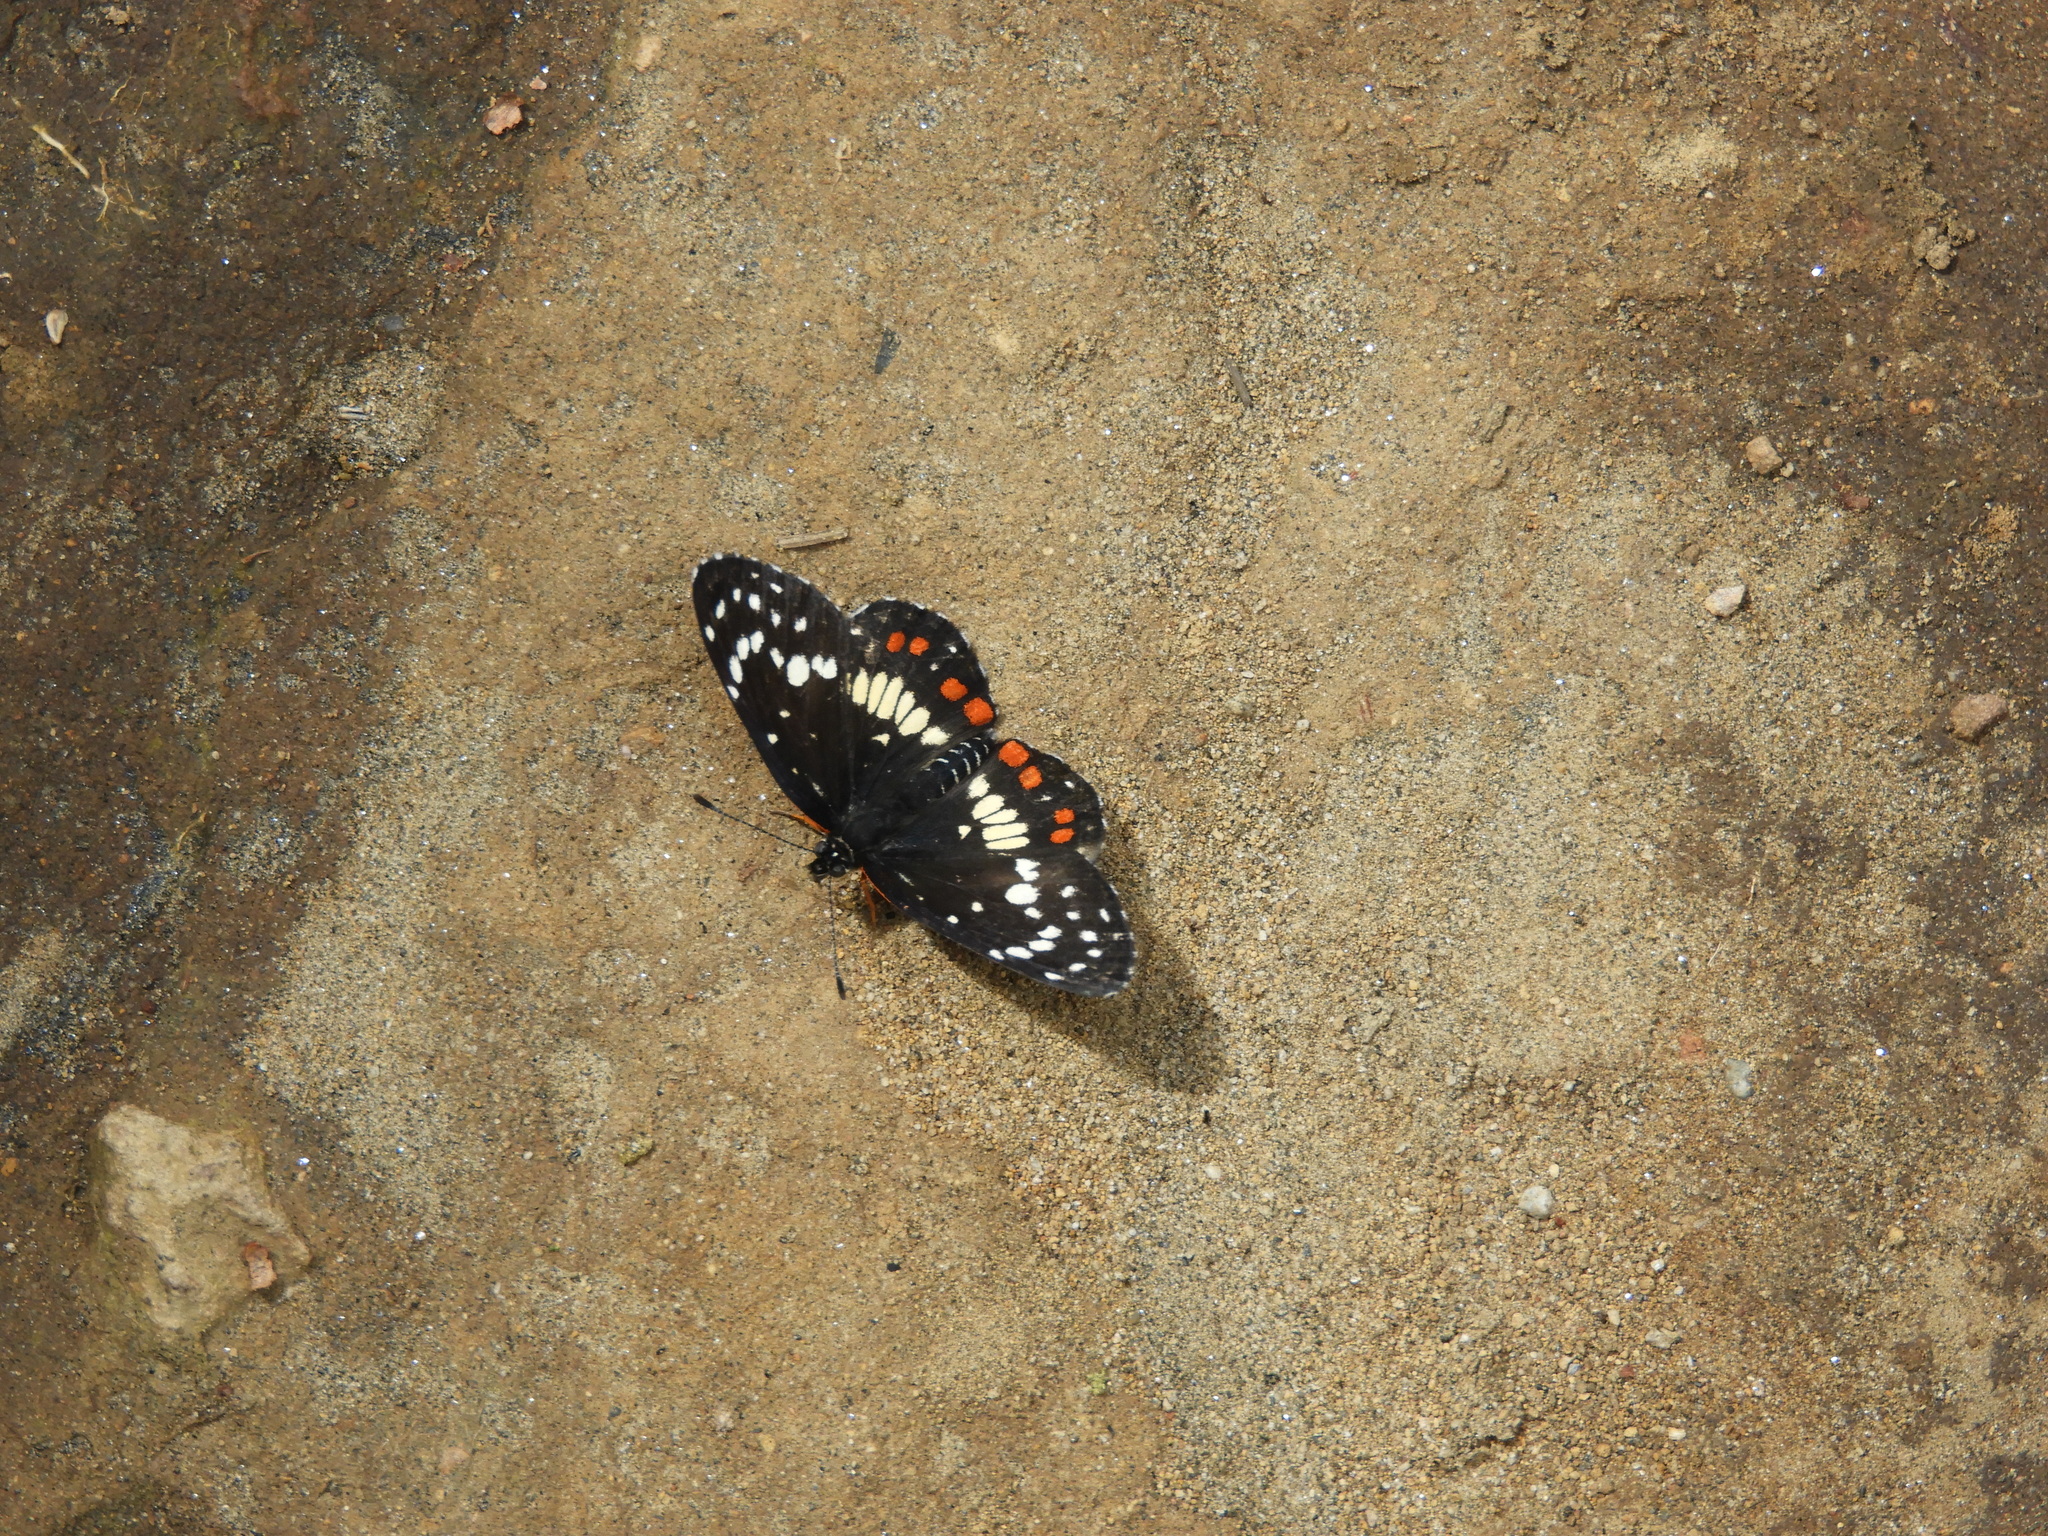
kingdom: Animalia
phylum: Arthropoda
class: Insecta
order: Lepidoptera
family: Nymphalidae
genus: Chlosyne
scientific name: Chlosyne erodyle
